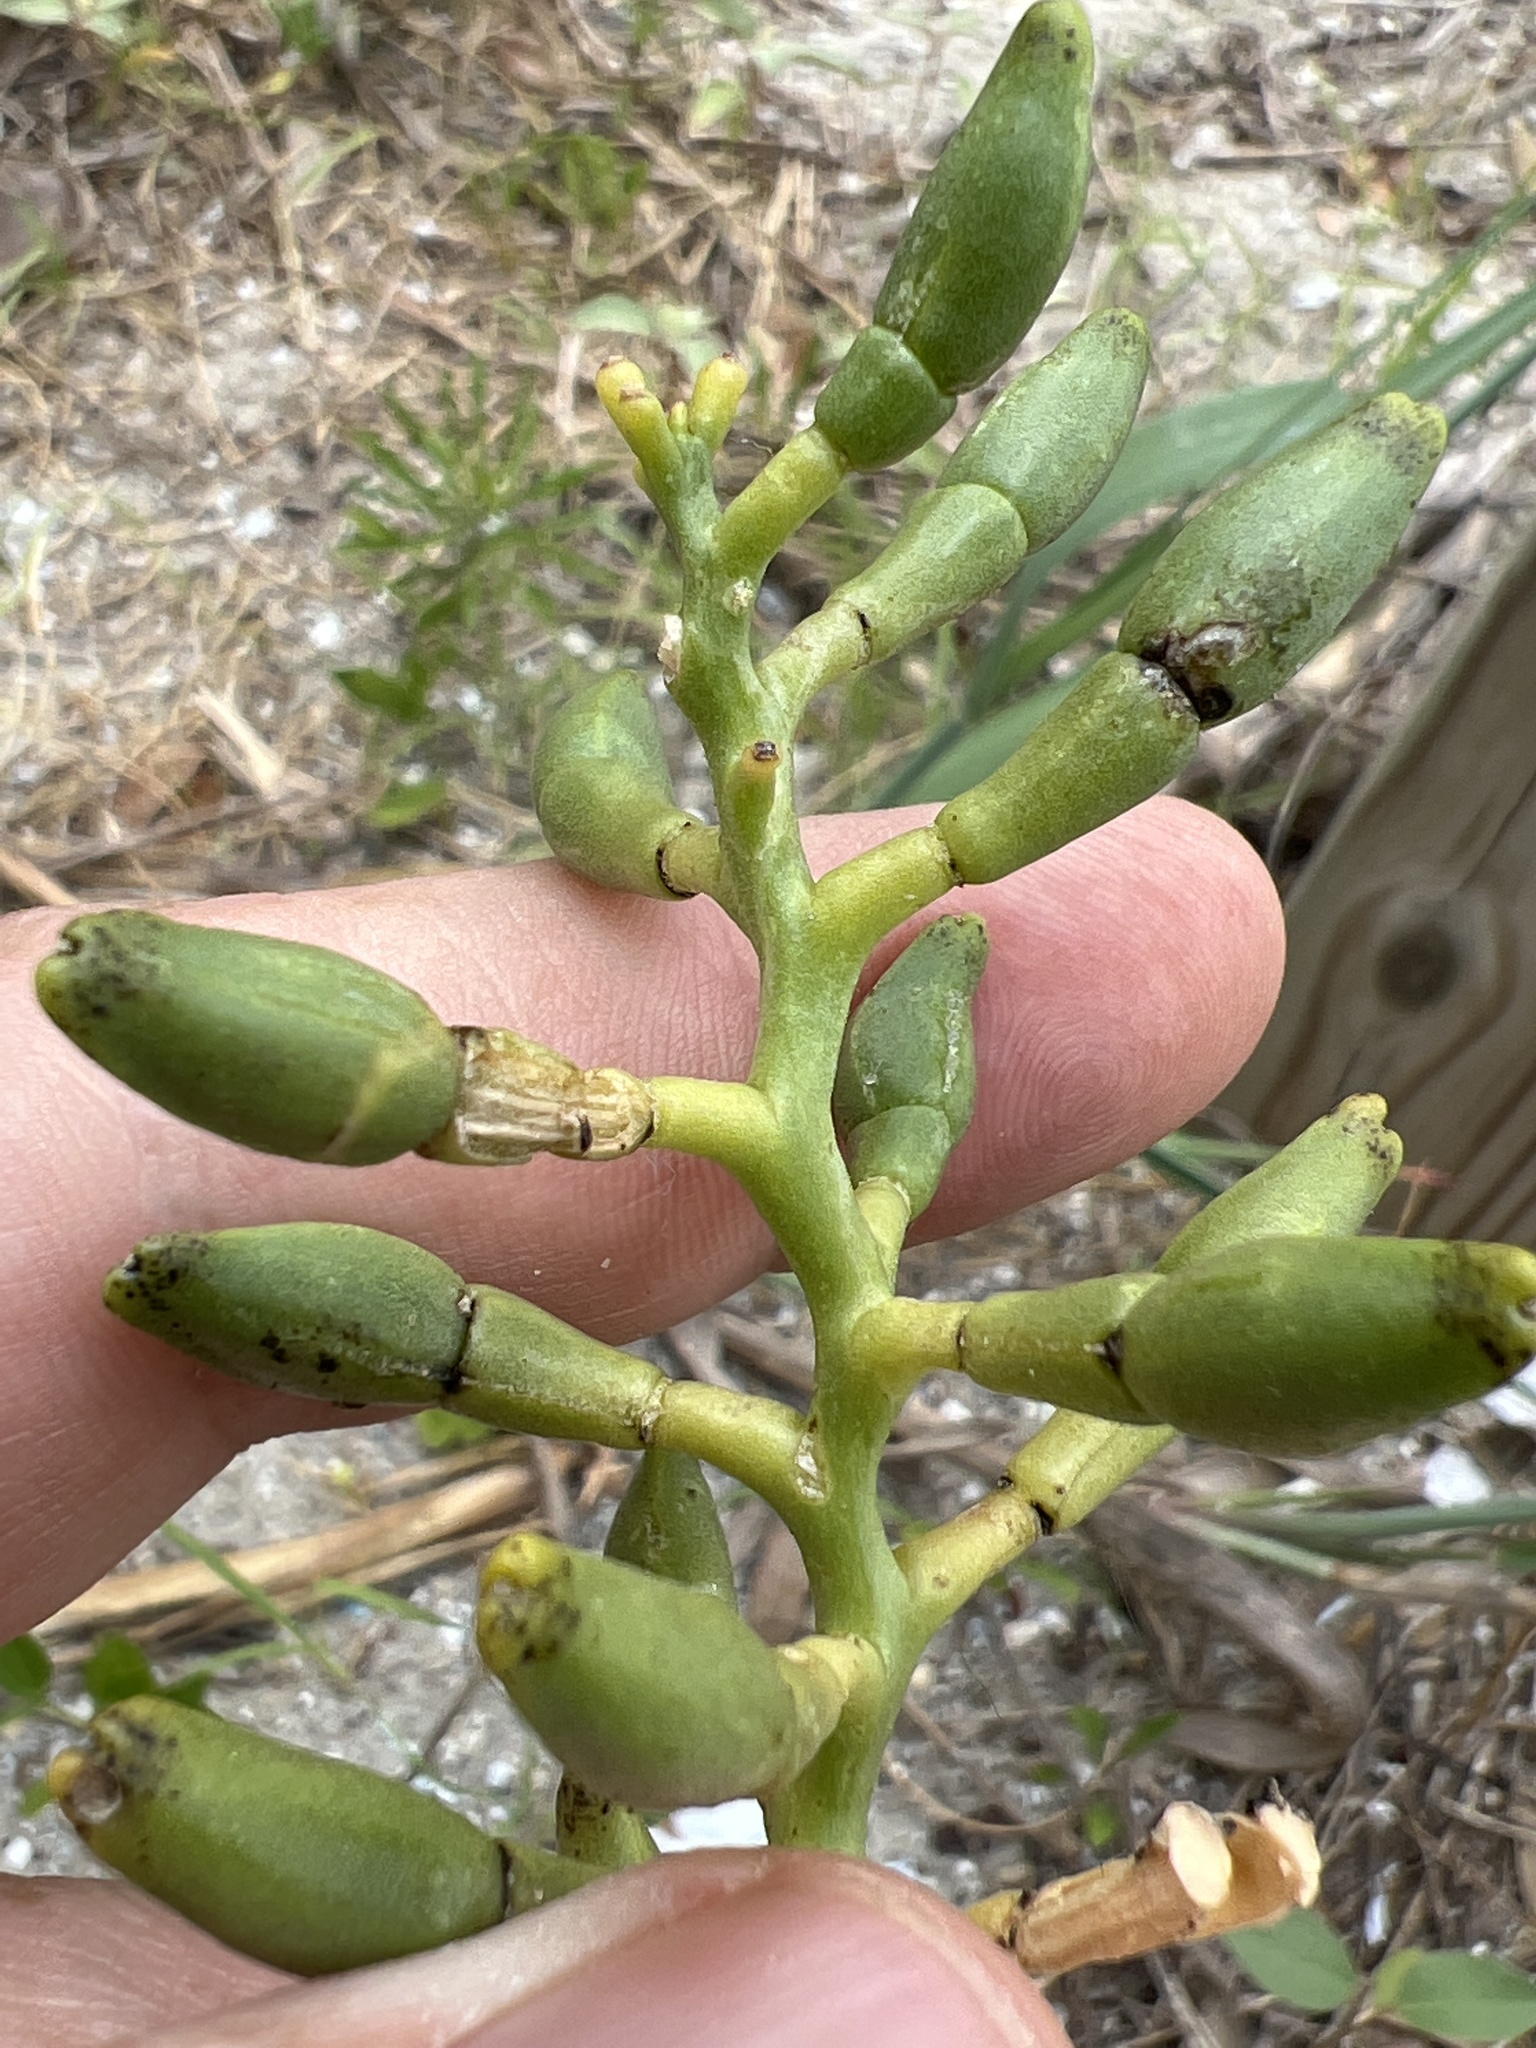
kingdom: Plantae
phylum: Tracheophyta
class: Magnoliopsida
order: Brassicales
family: Brassicaceae
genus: Cakile
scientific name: Cakile edentula
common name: American sea rocket
